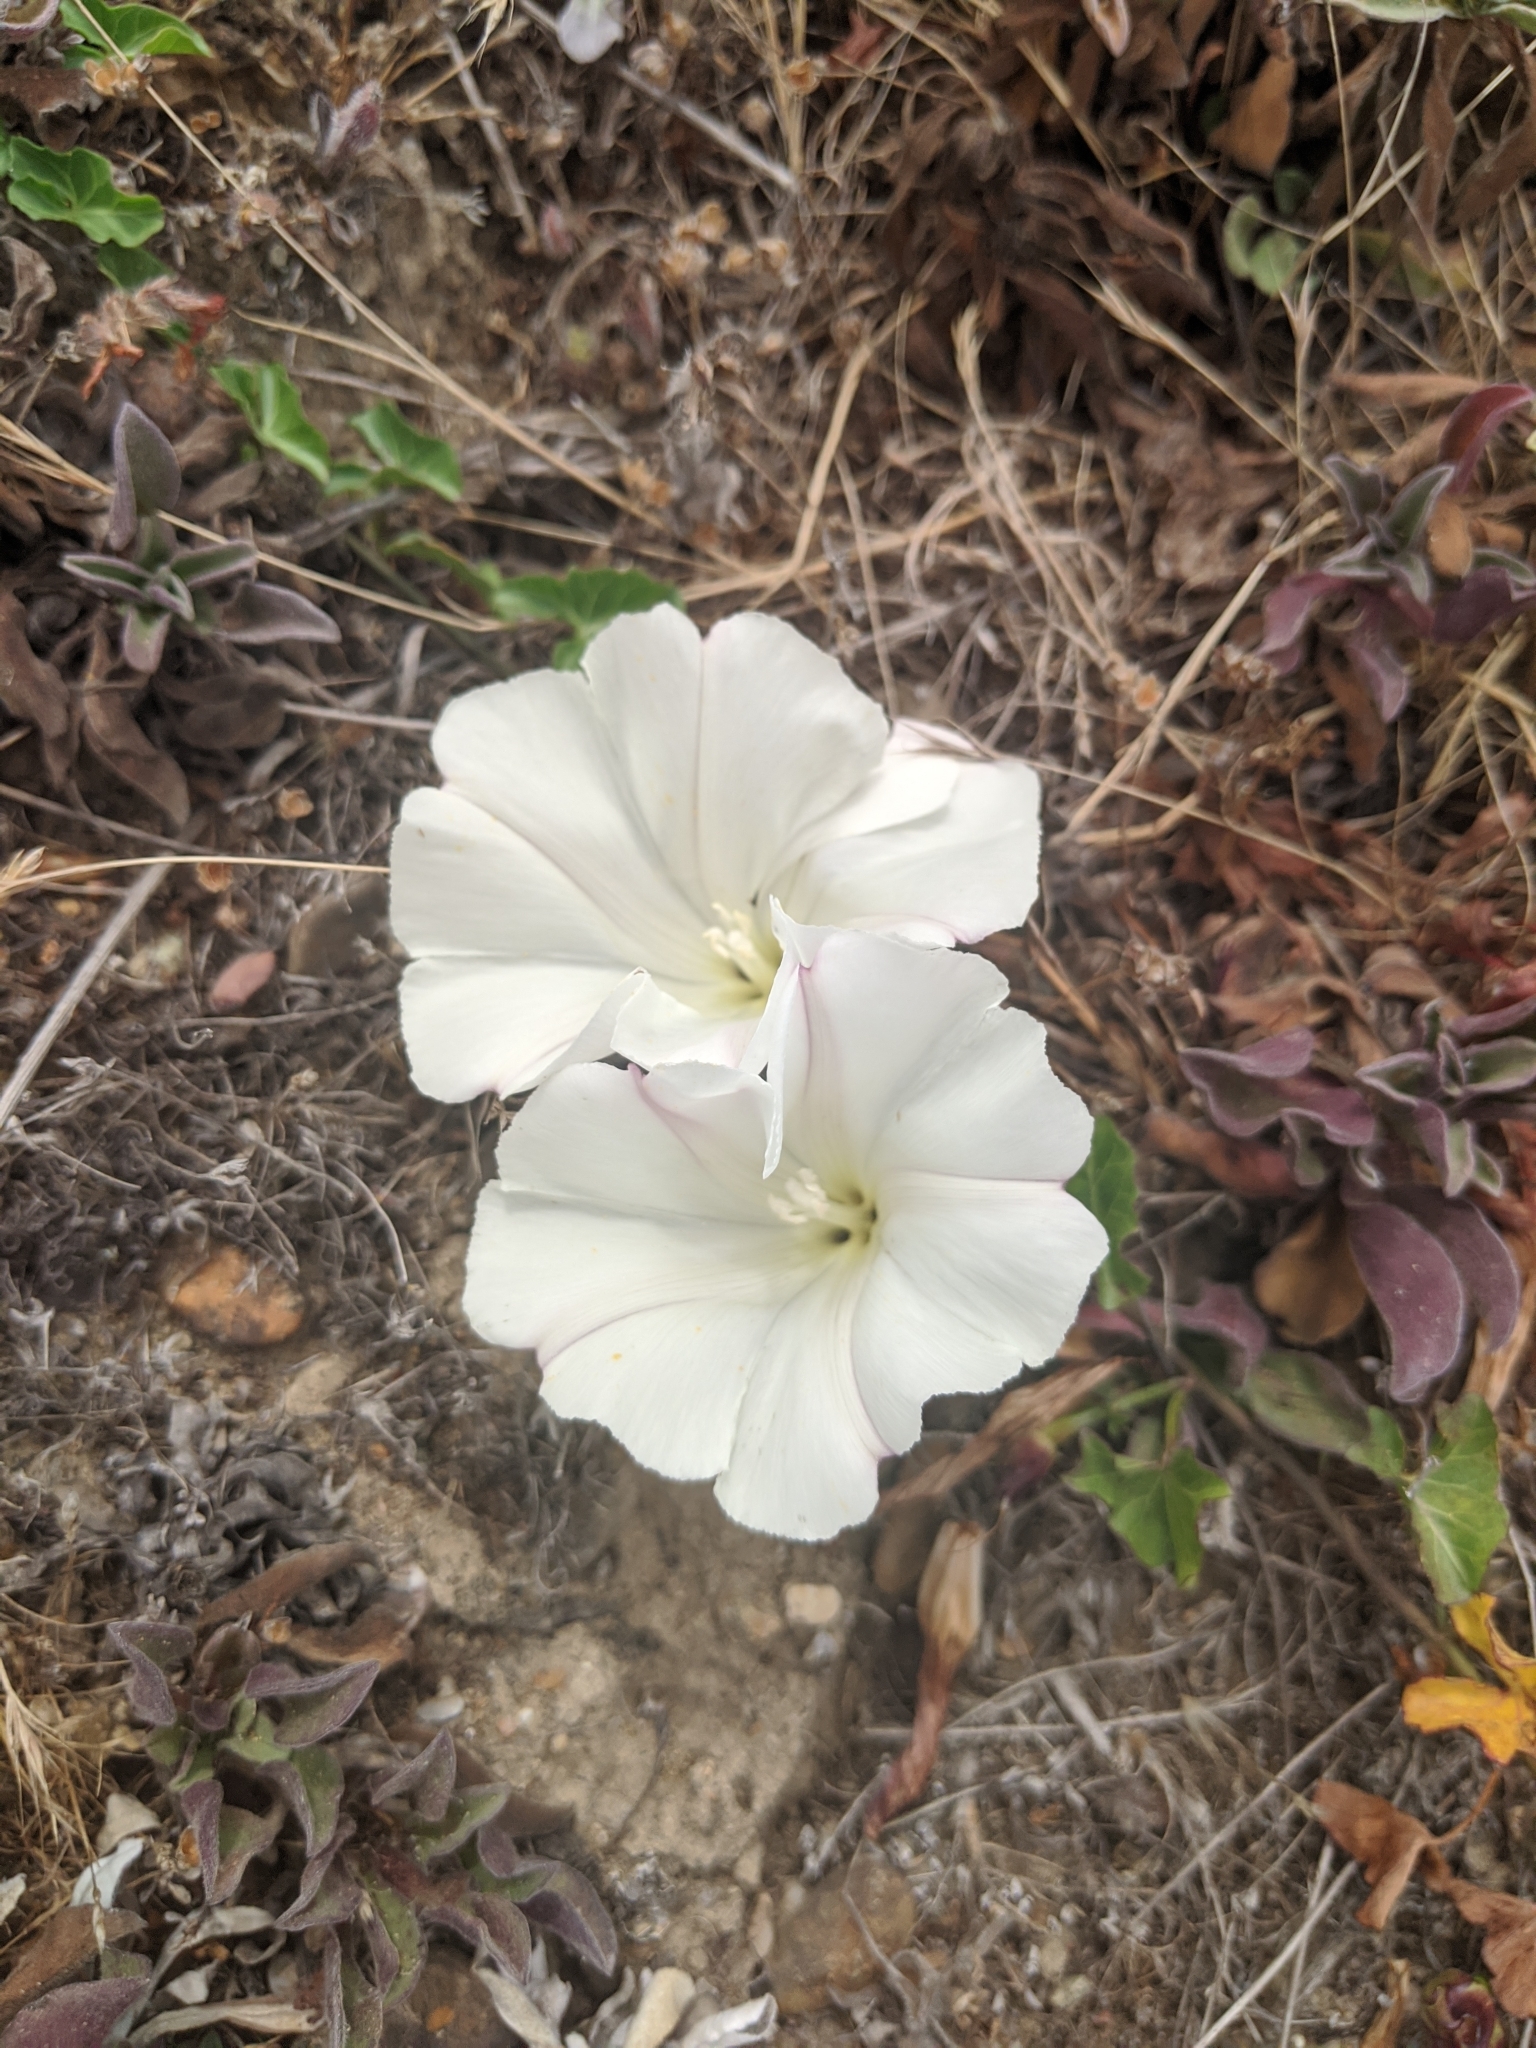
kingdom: Plantae
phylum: Tracheophyta
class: Magnoliopsida
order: Solanales
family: Convolvulaceae
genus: Calystegia
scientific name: Calystegia purpurata
